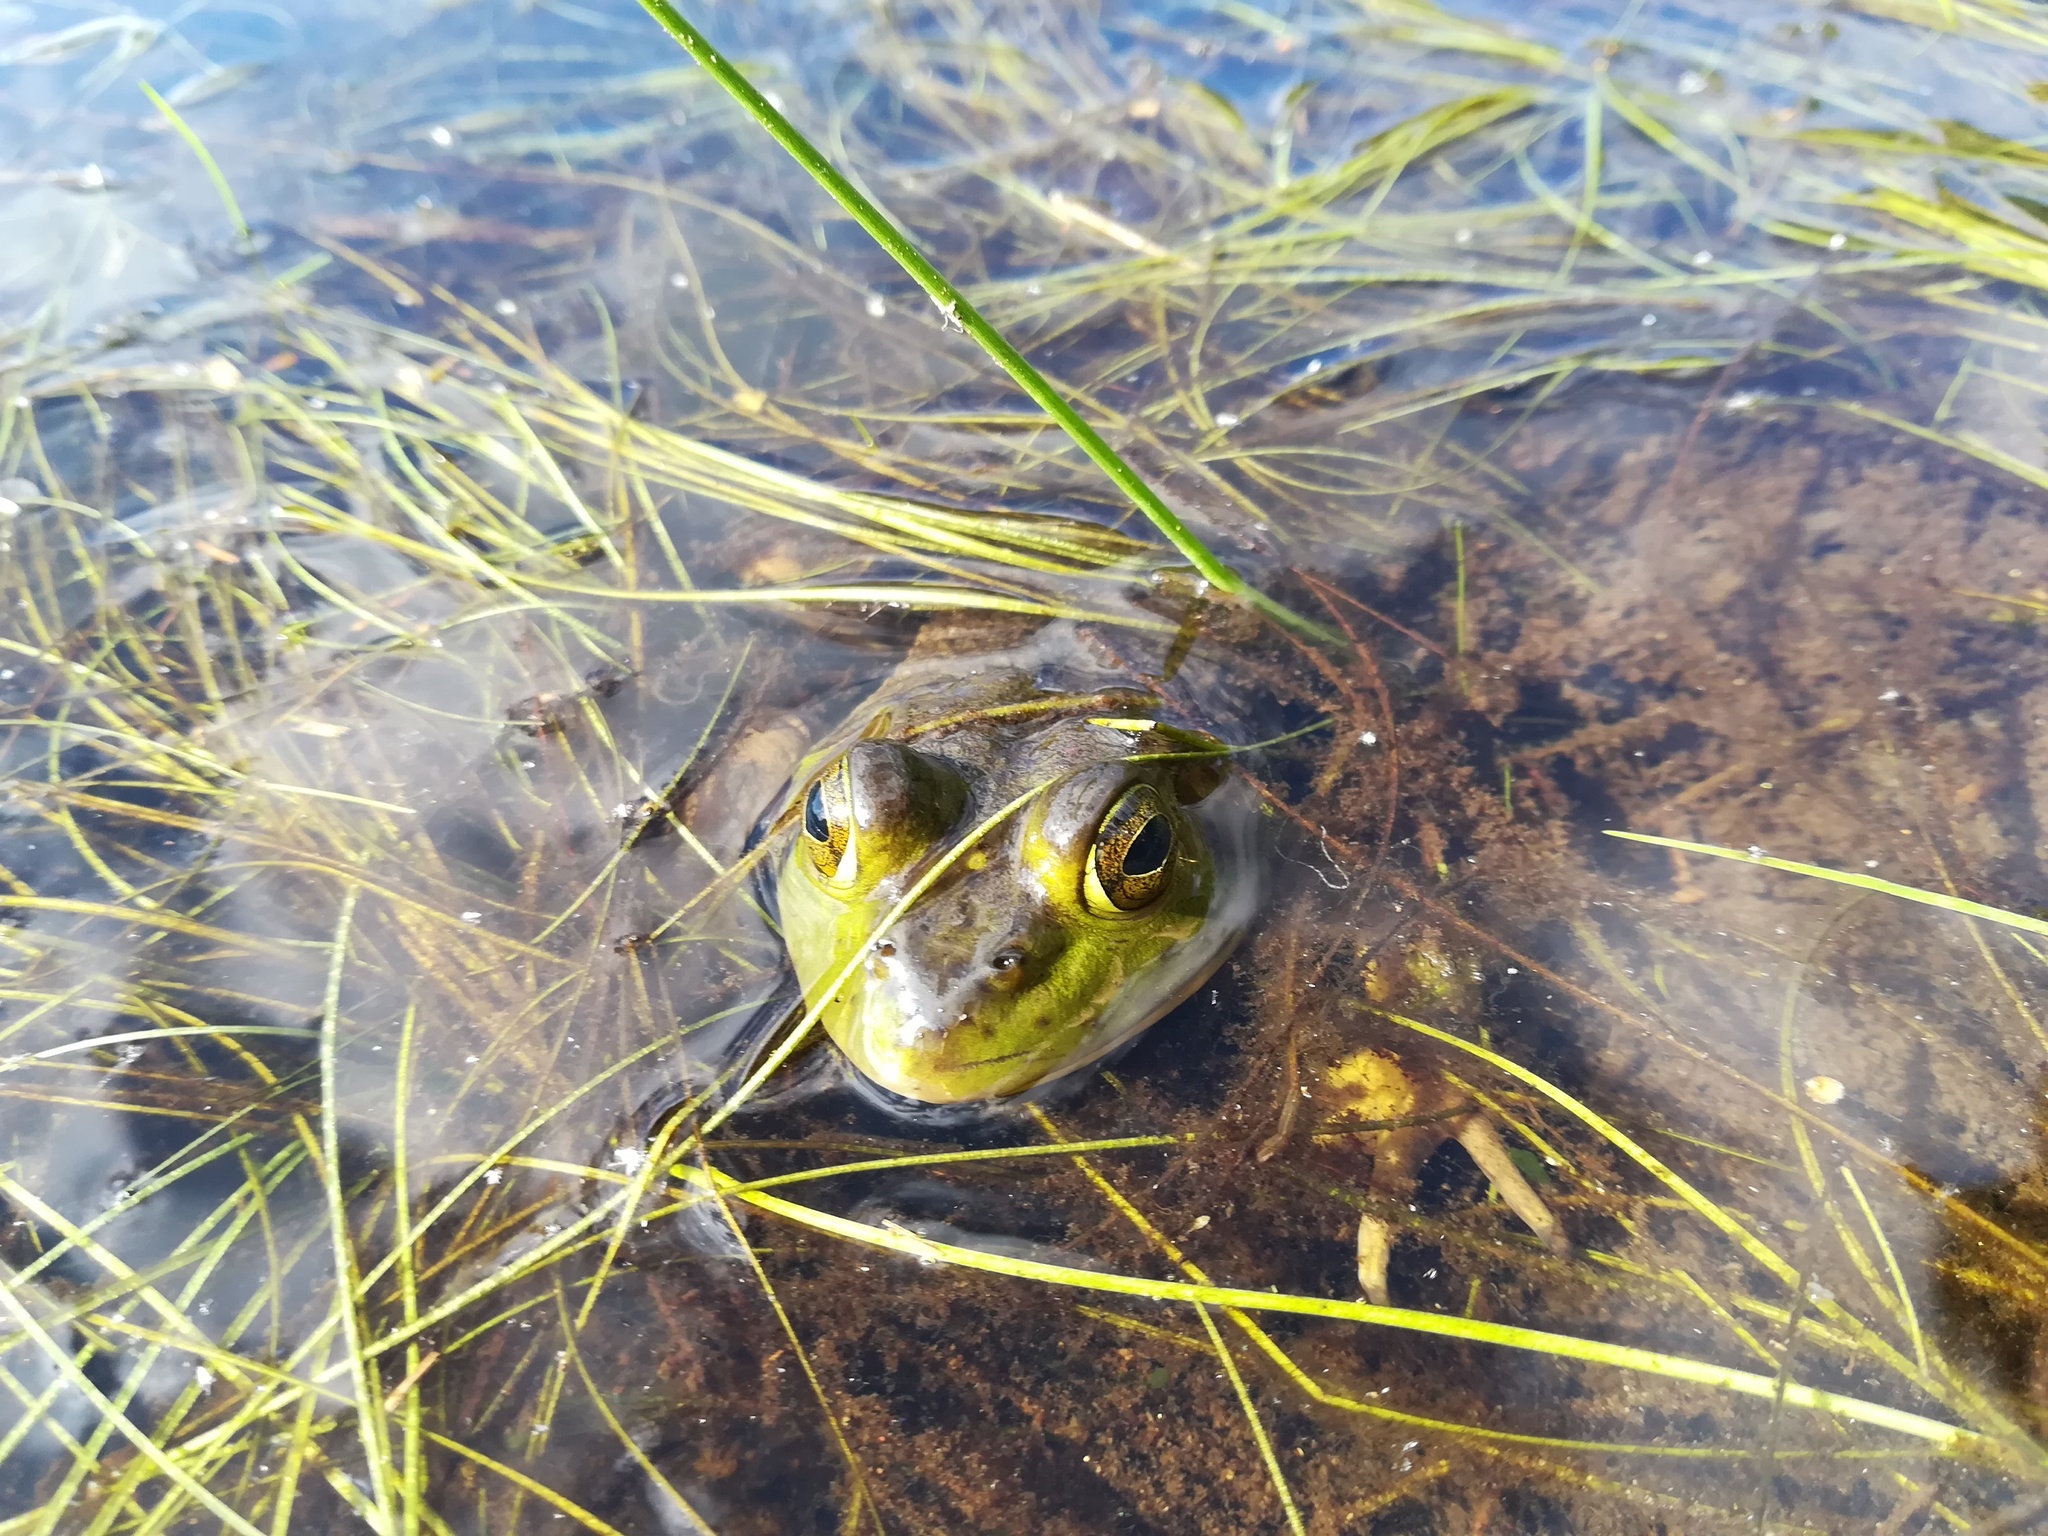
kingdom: Animalia
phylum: Chordata
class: Amphibia
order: Anura
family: Ranidae
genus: Lithobates
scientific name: Lithobates catesbeianus
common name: American bullfrog
